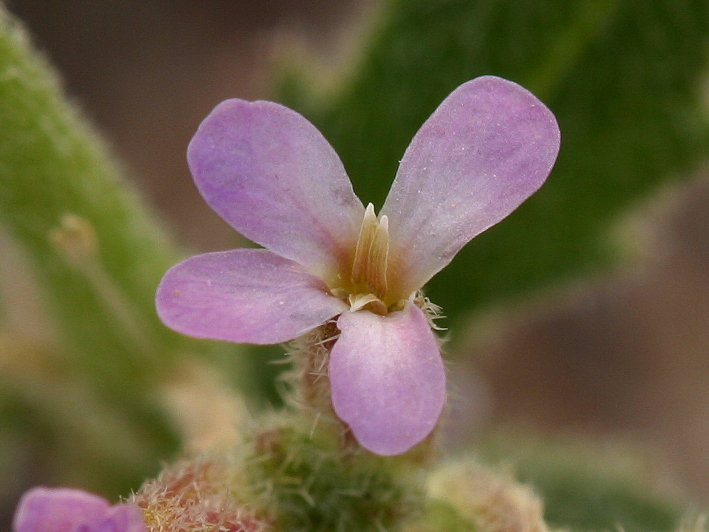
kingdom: Plantae
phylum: Tracheophyta
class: Magnoliopsida
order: Brassicales
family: Brassicaceae
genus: Strigosella
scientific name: Strigosella africana
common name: African mustard
